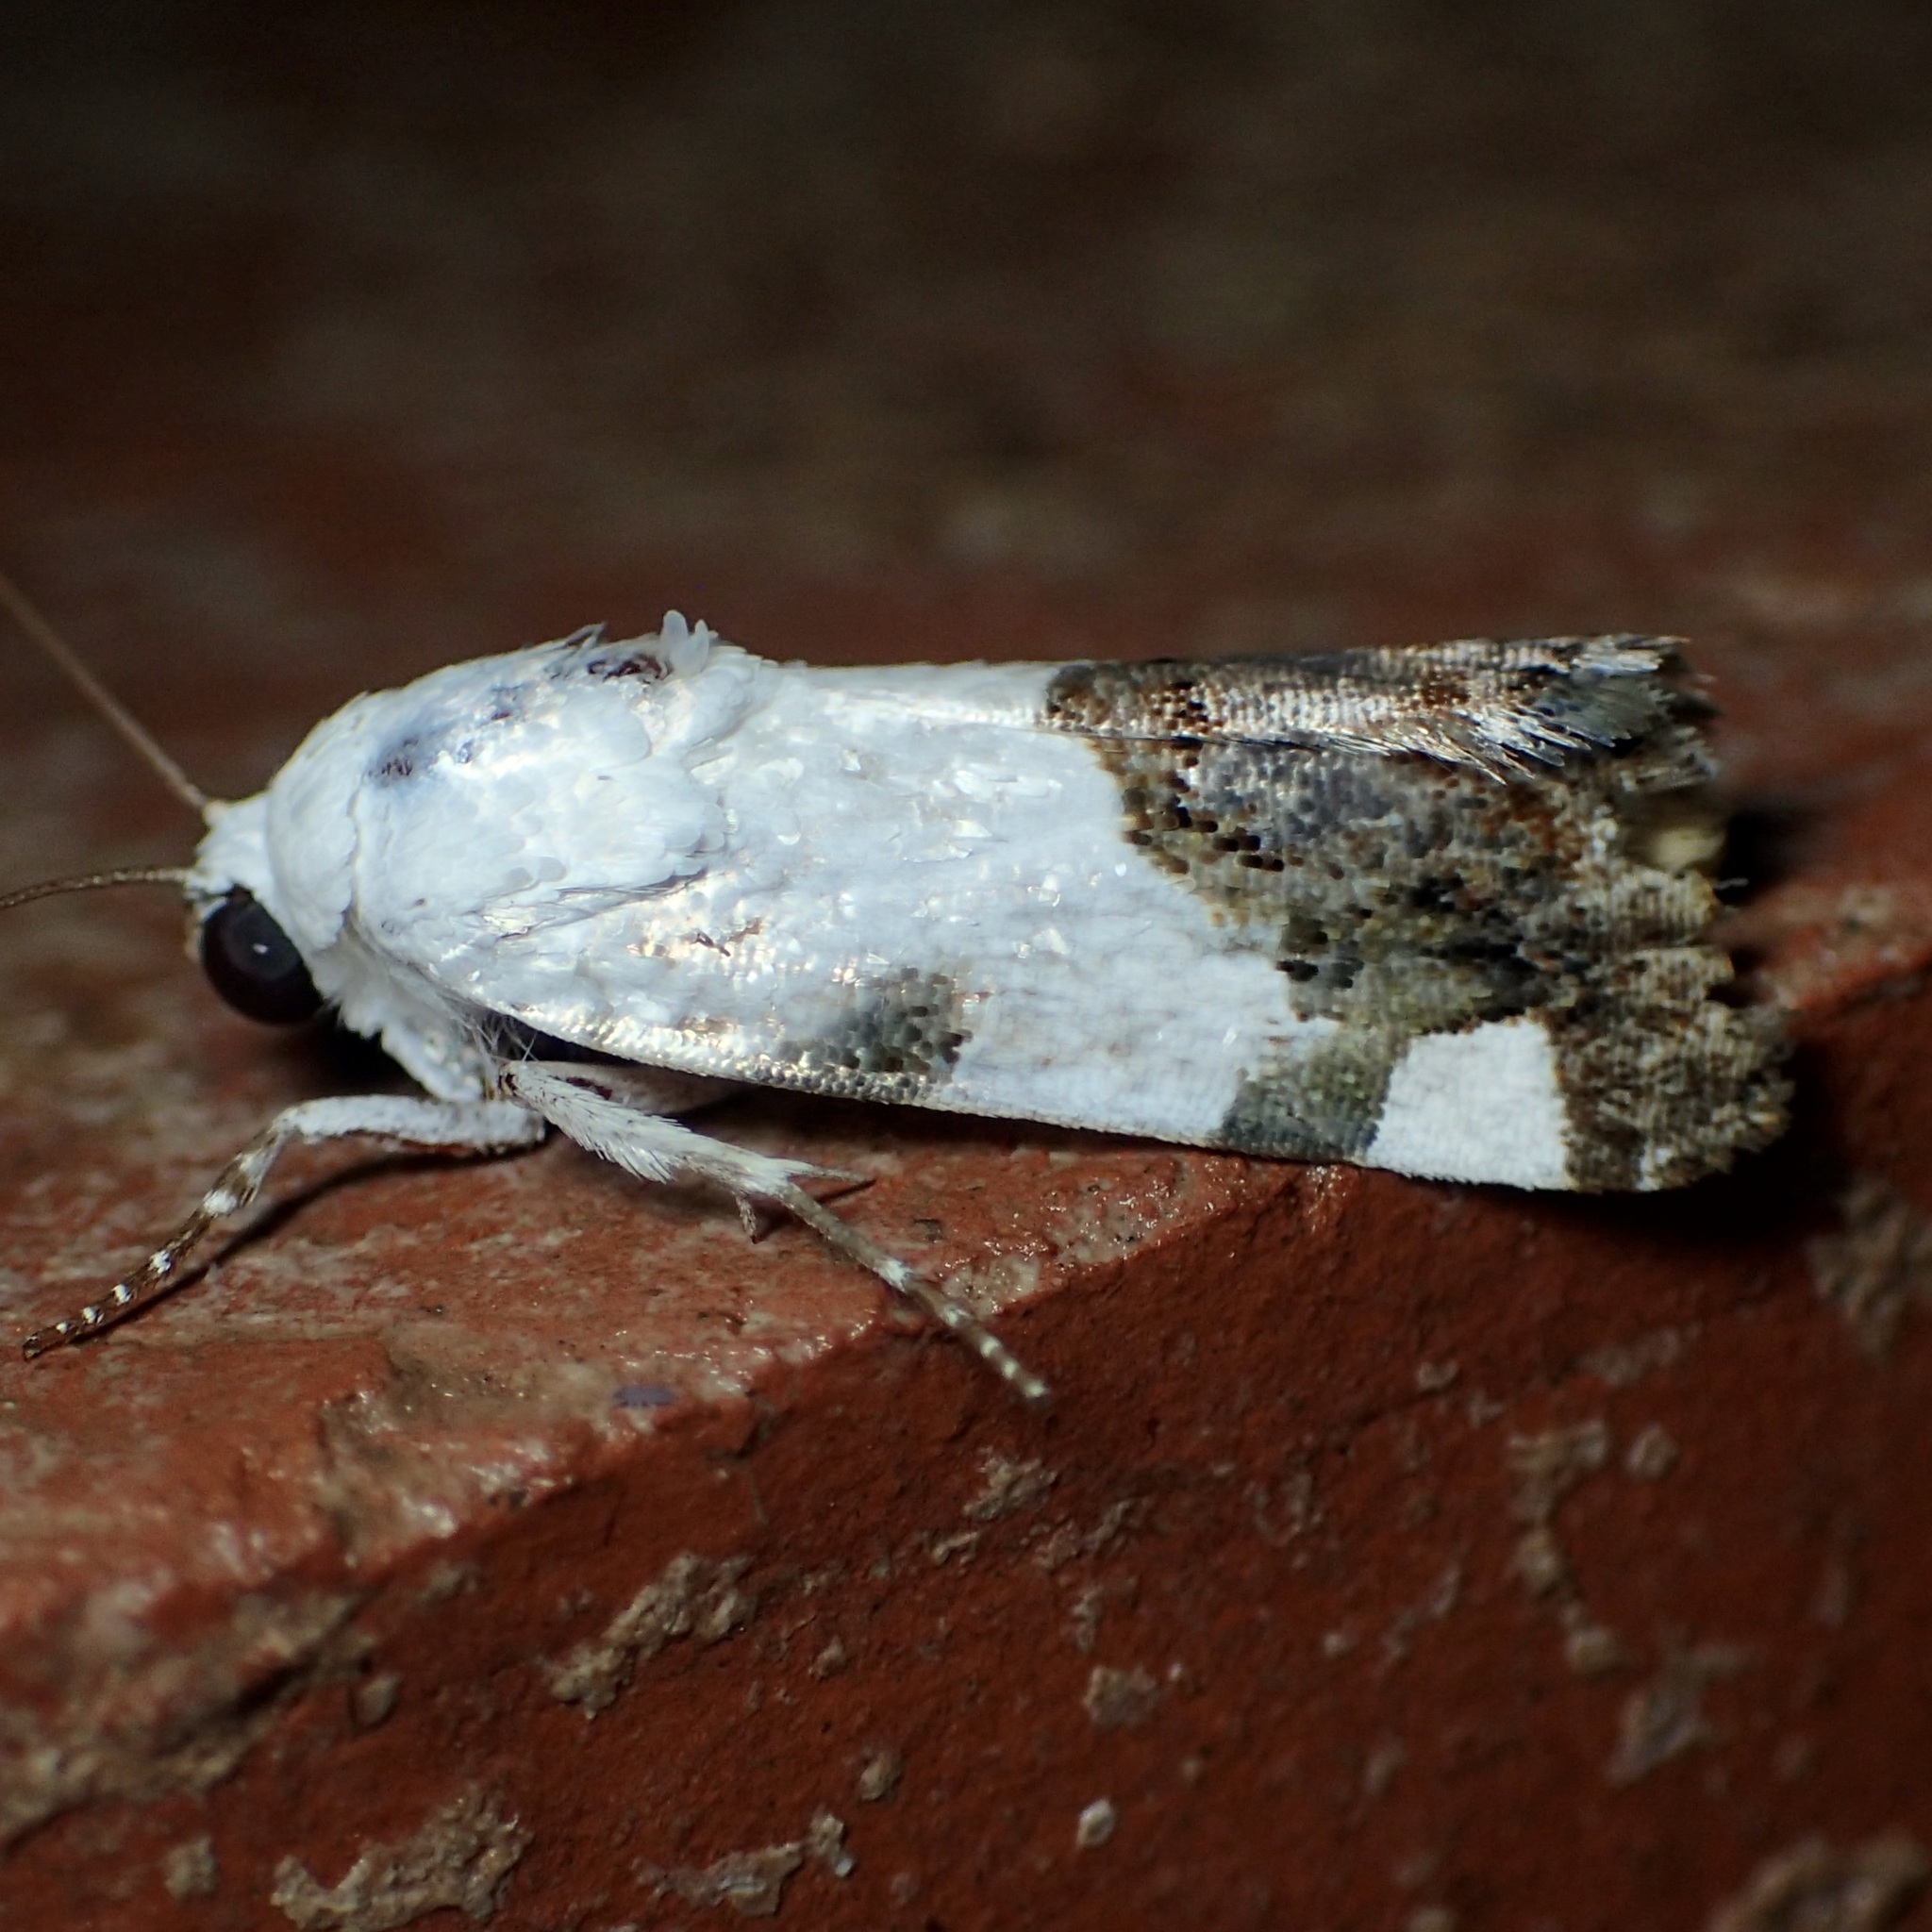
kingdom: Animalia
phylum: Arthropoda
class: Insecta
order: Lepidoptera
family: Noctuidae
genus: Acontia
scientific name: Acontia quadriplaga
